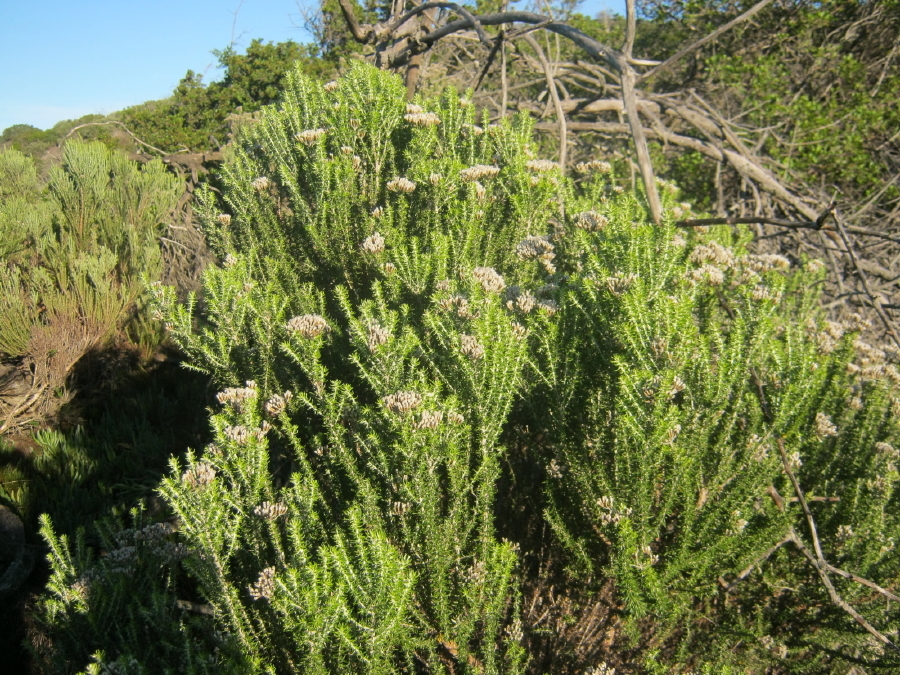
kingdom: Plantae
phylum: Tracheophyta
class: Magnoliopsida
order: Asterales
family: Asteraceae
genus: Metalasia
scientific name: Metalasia muricata
